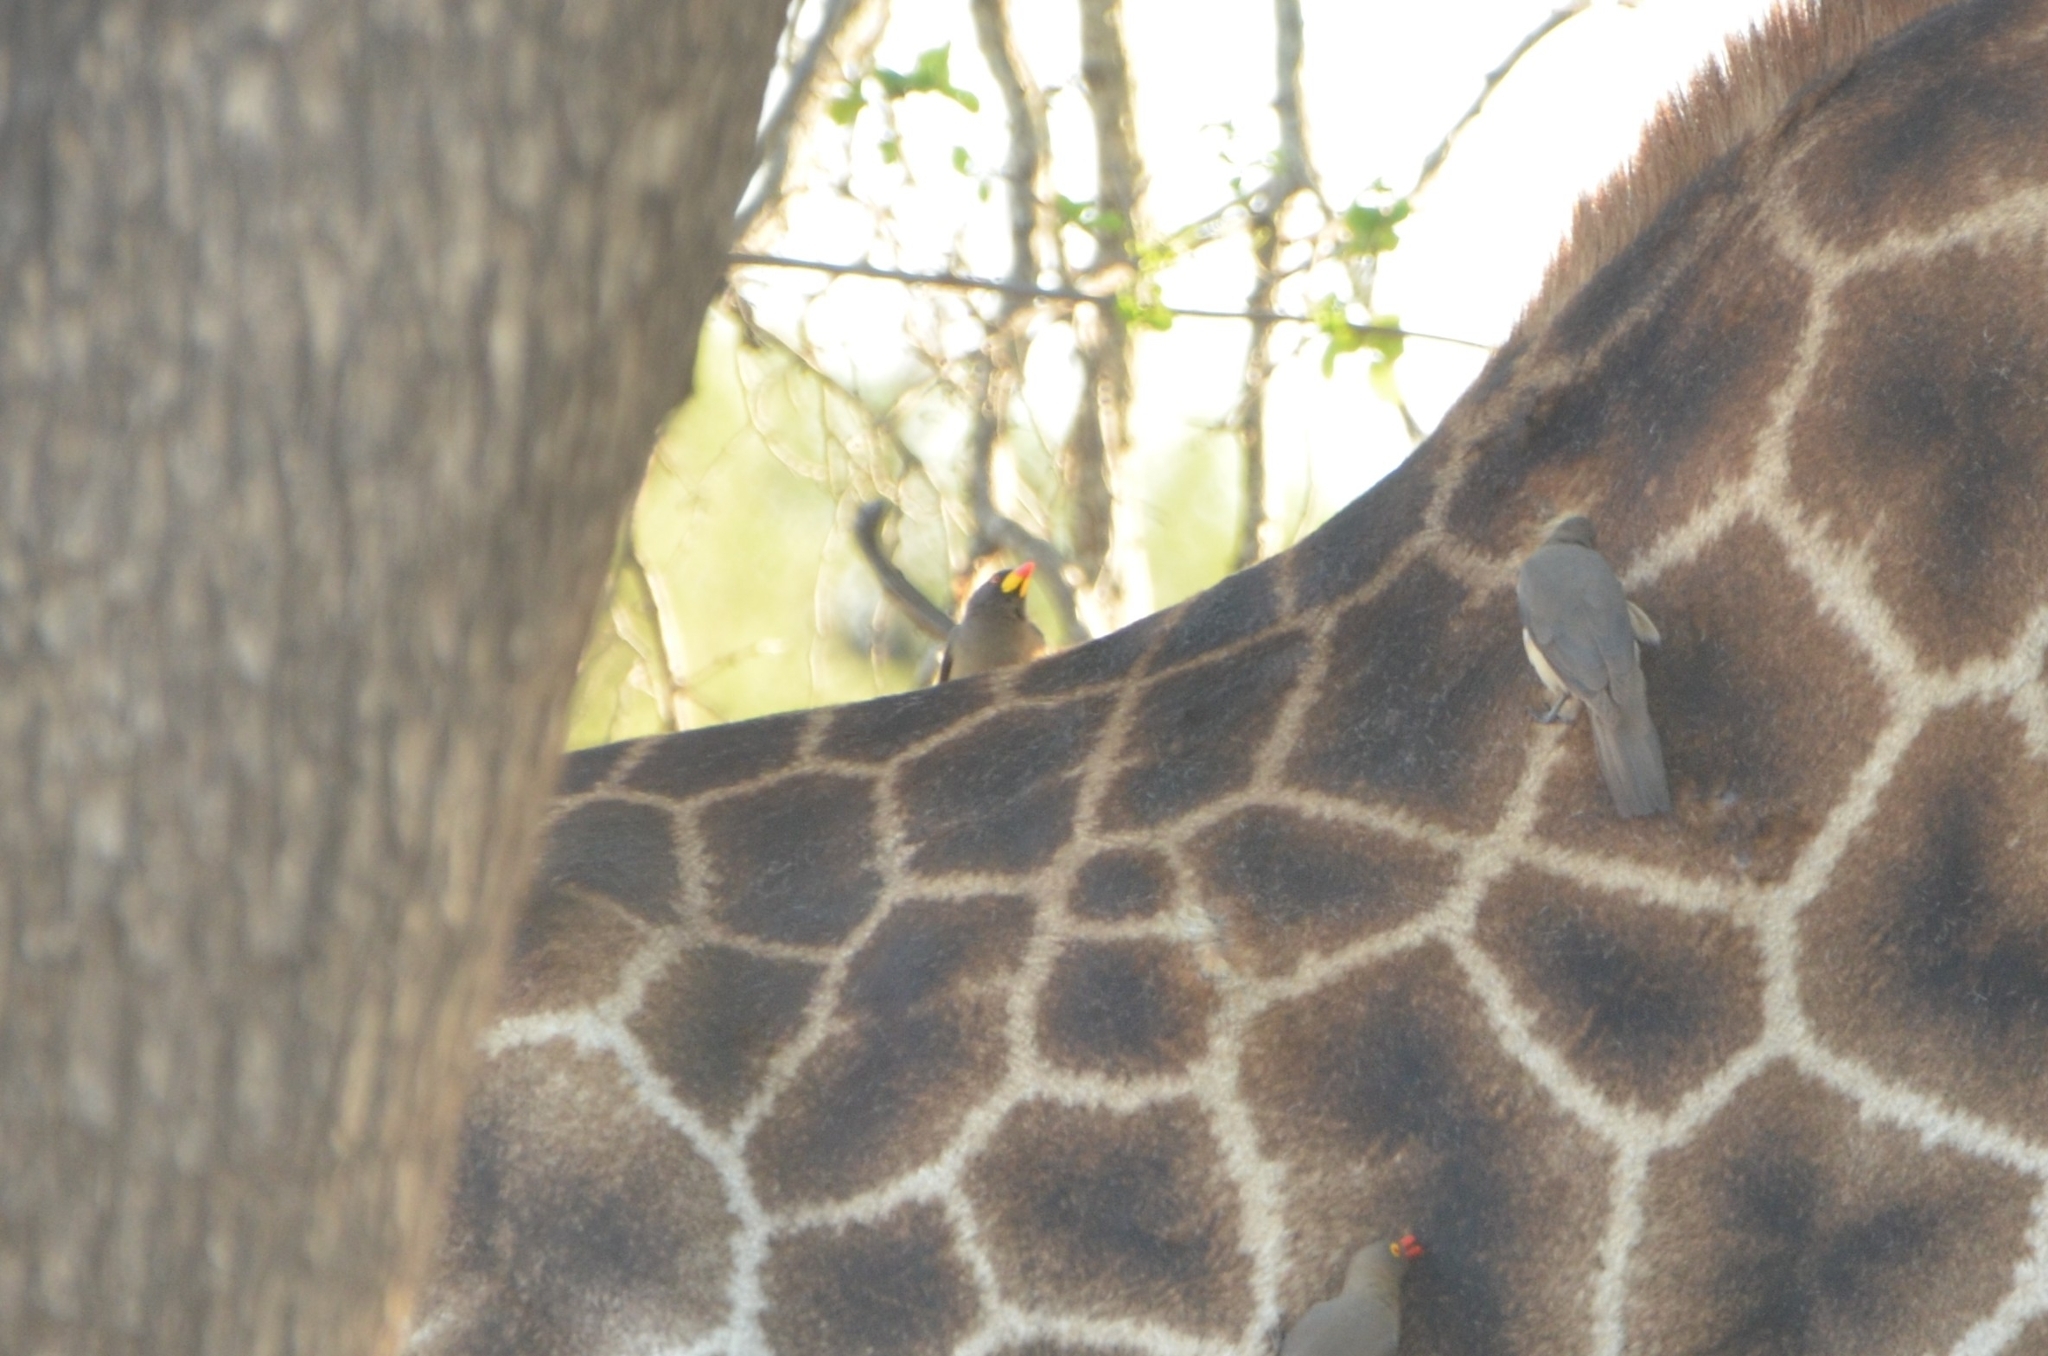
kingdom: Animalia
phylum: Chordata
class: Aves
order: Passeriformes
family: Buphagidae
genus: Buphagus
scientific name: Buphagus africanus
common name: Yellow-billed oxpecker
